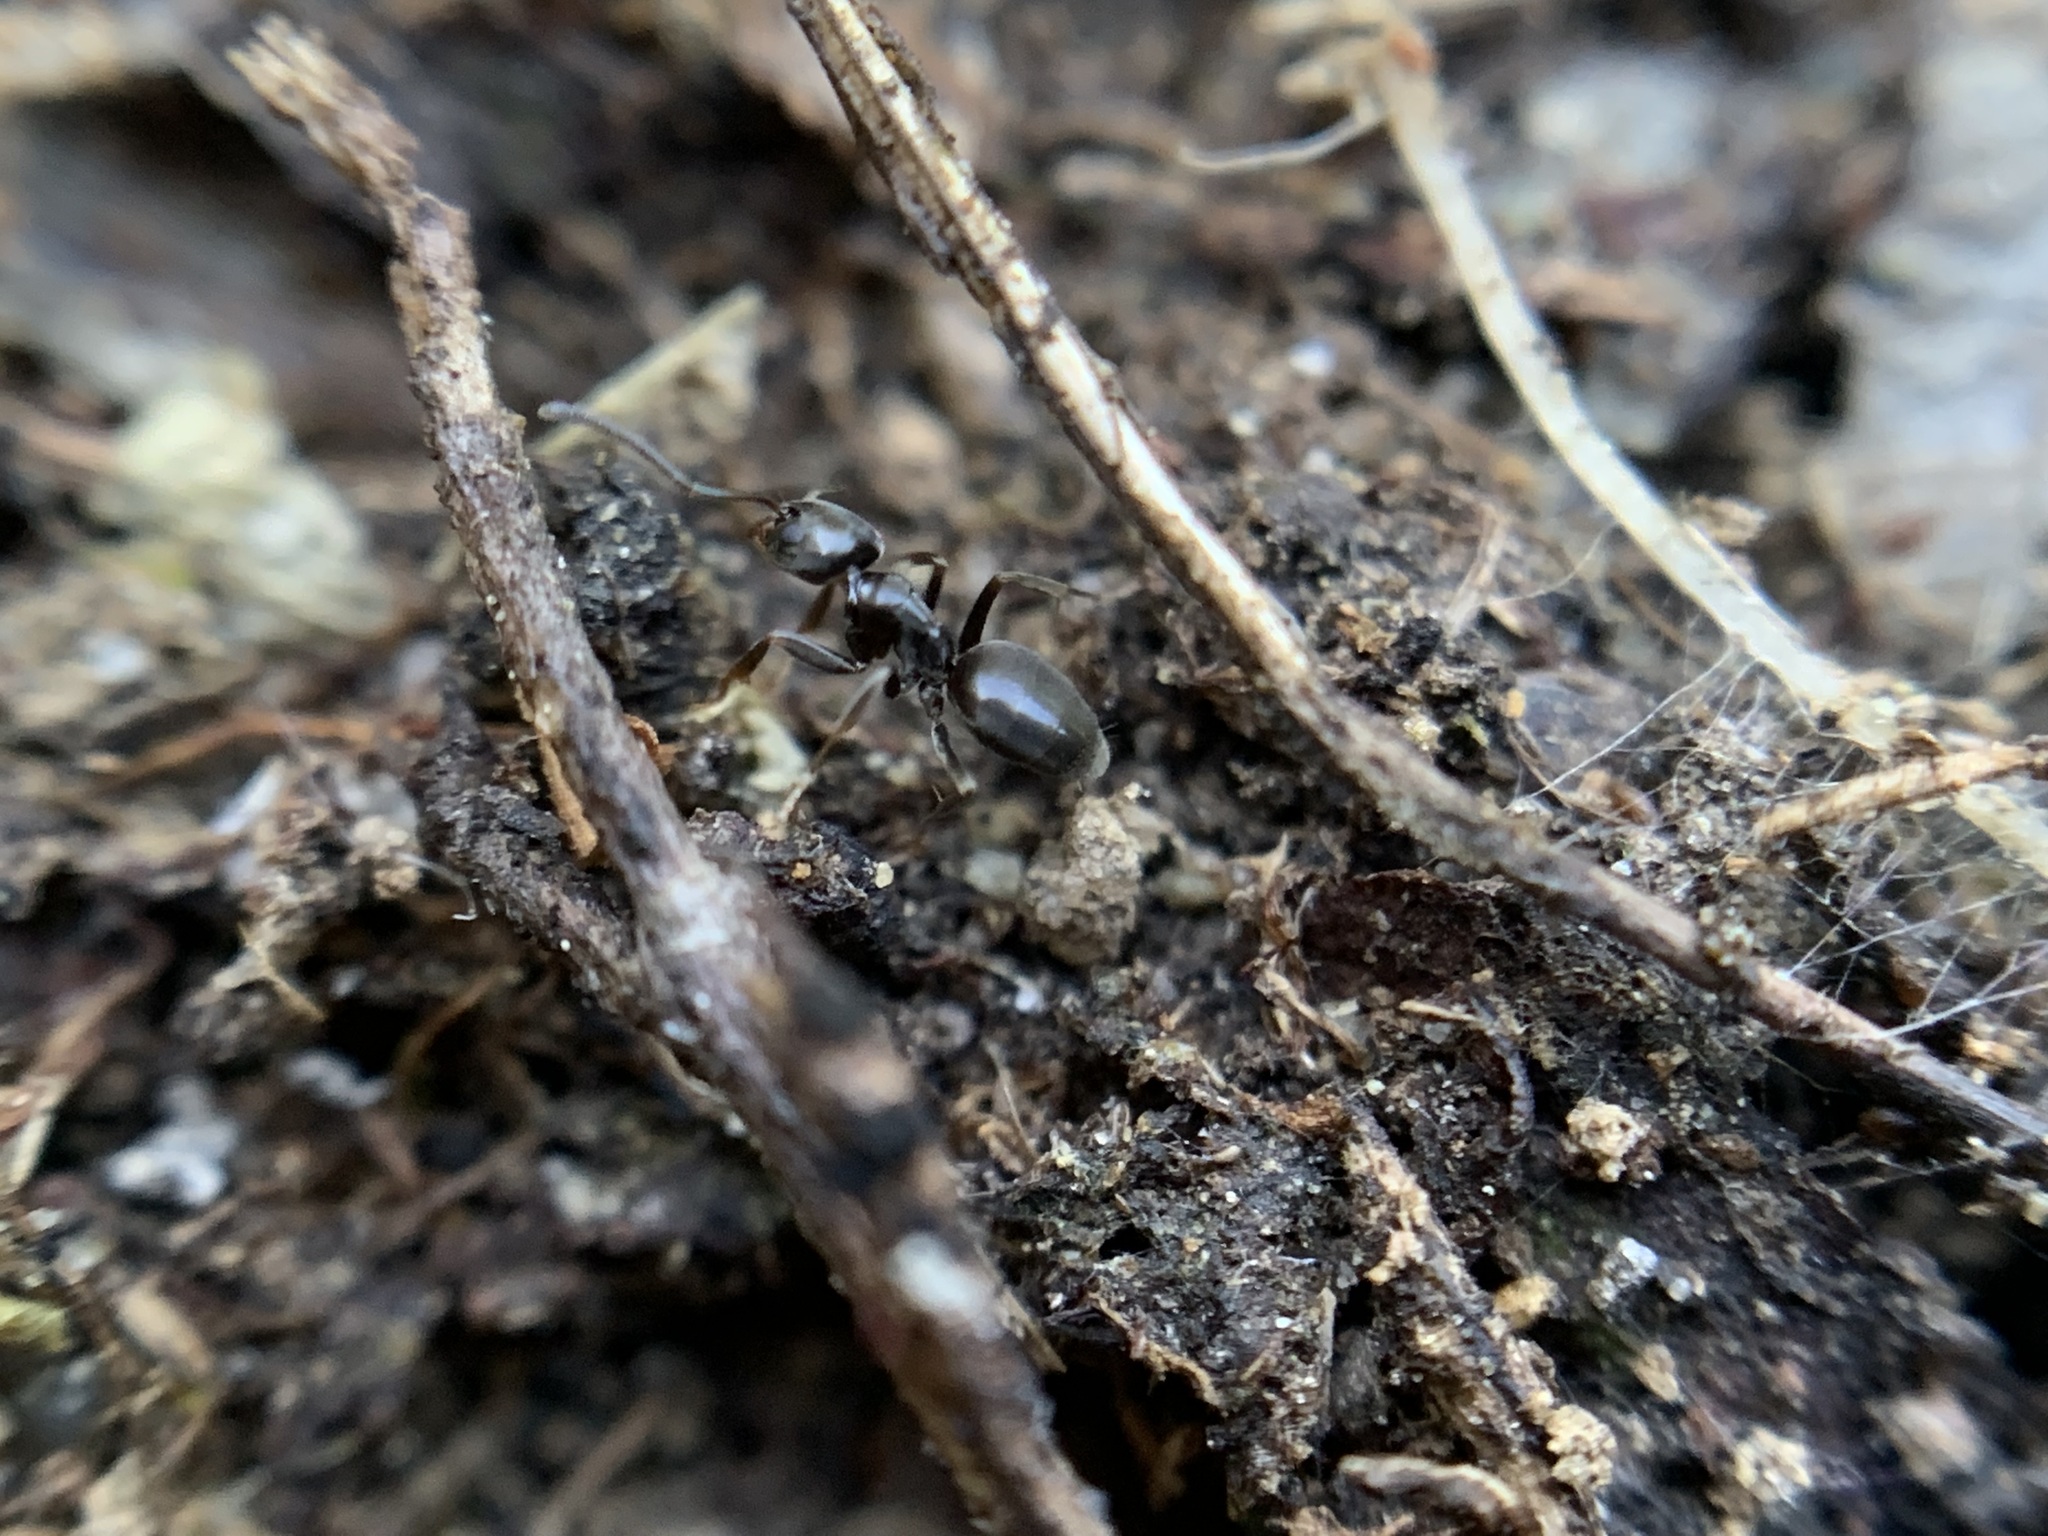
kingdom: Animalia
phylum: Arthropoda
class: Insecta
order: Hymenoptera
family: Formicidae
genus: Tapinoma
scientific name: Tapinoma sessile
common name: Odorous house ant
